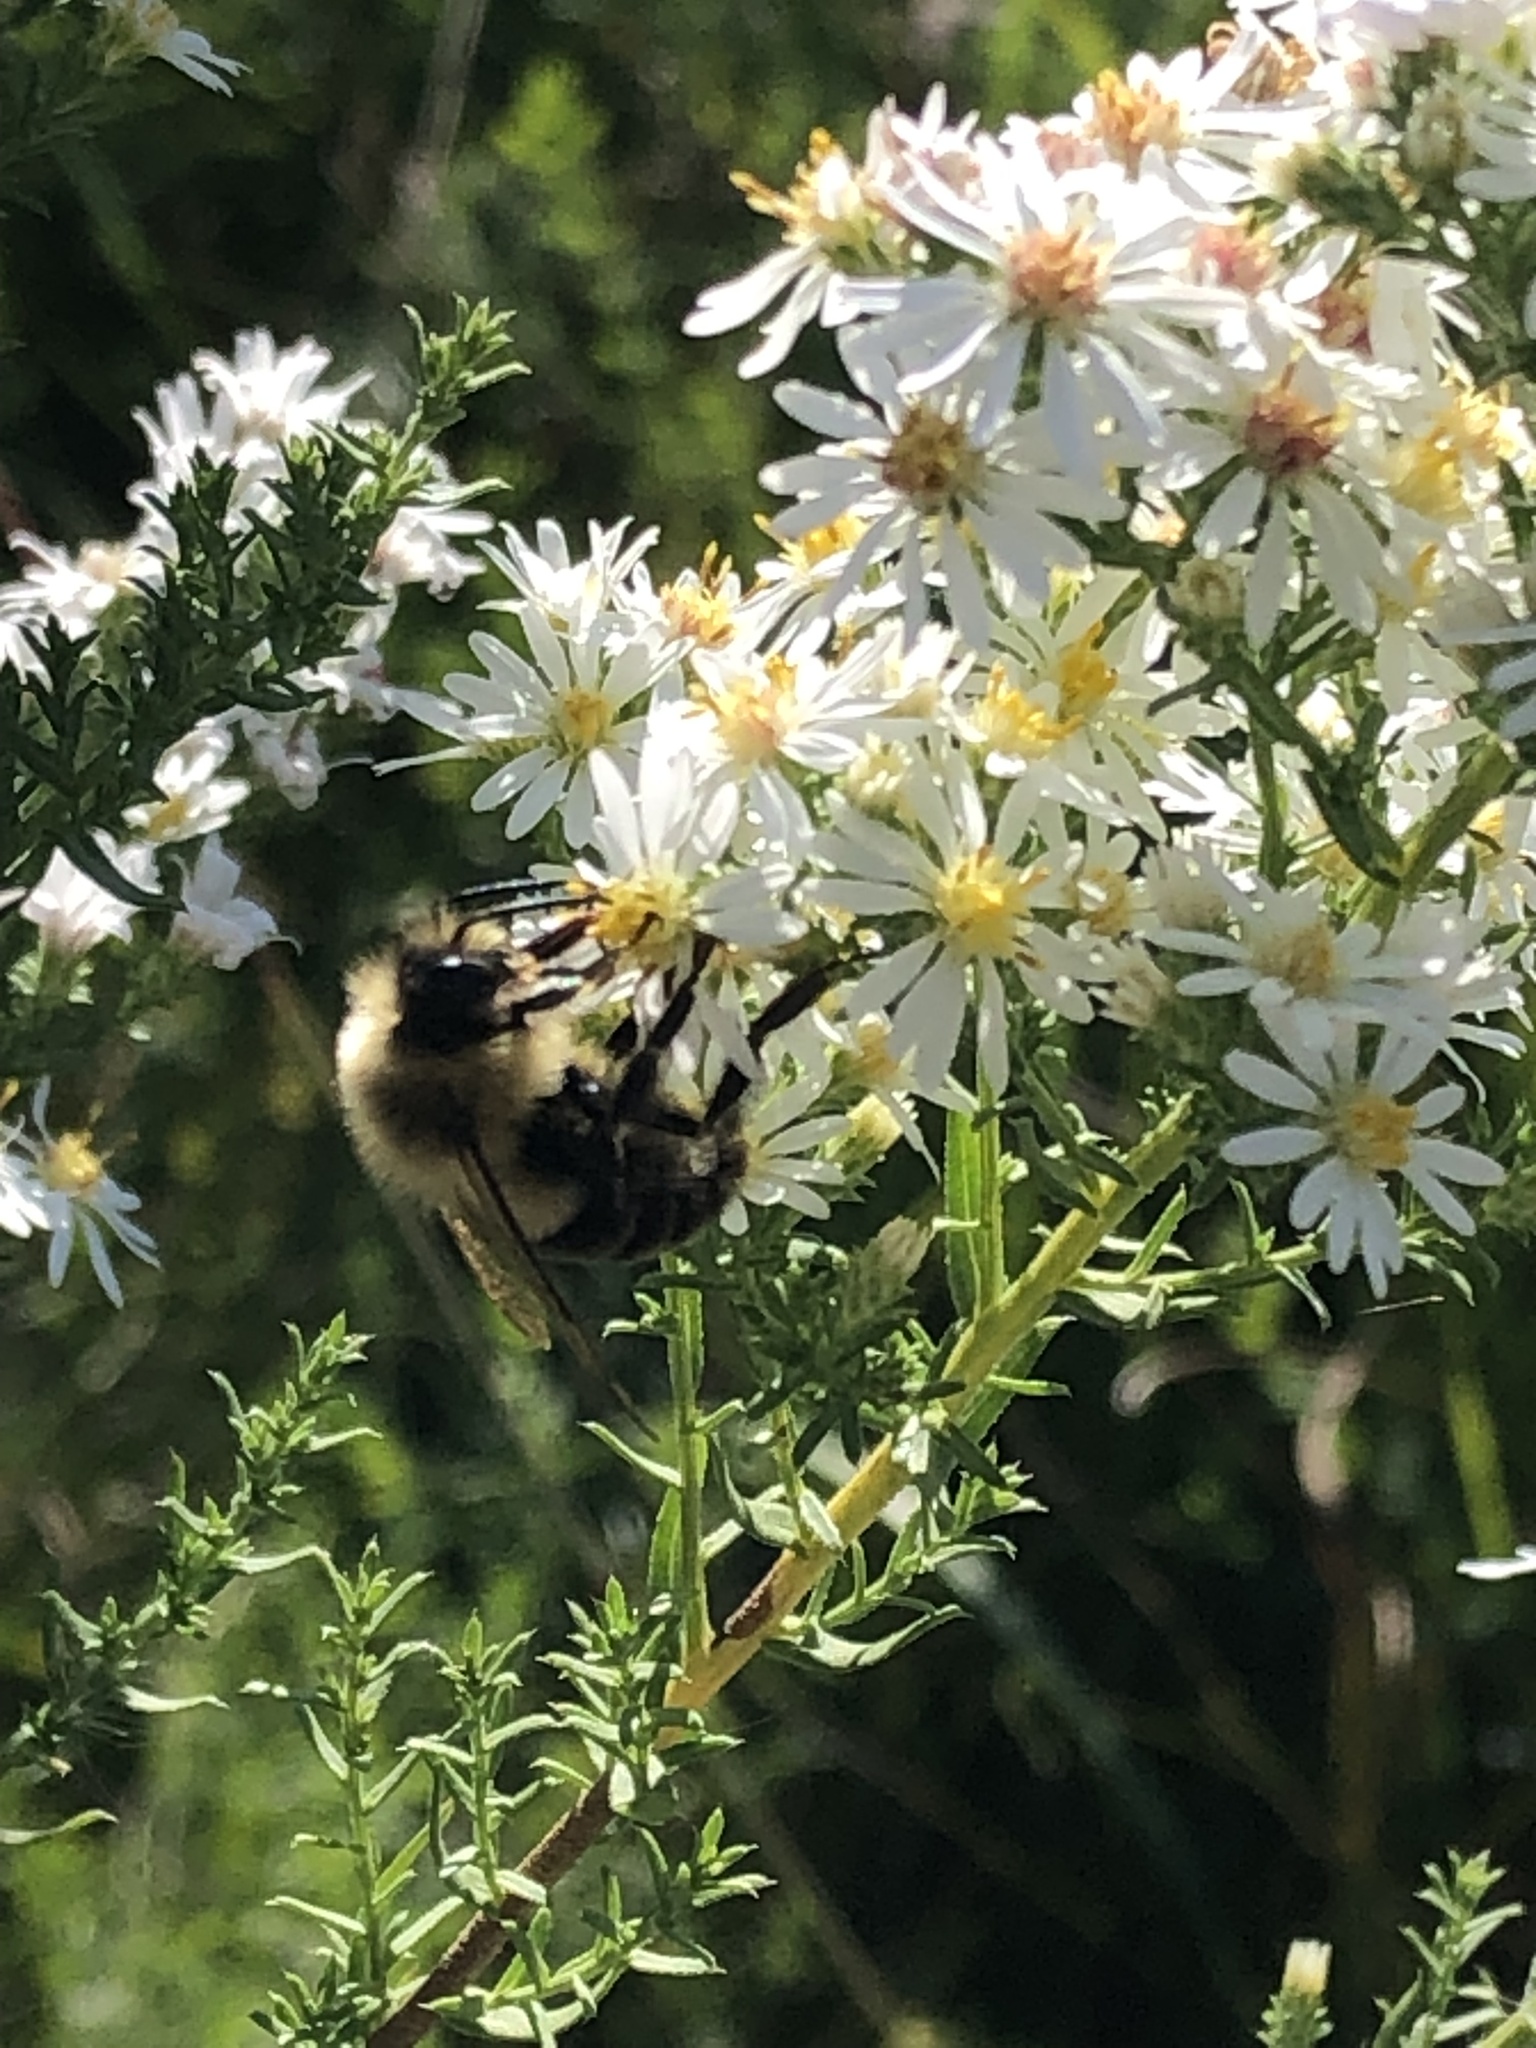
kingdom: Animalia
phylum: Arthropoda
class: Insecta
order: Hymenoptera
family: Apidae
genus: Bombus
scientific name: Bombus impatiens
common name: Common eastern bumble bee
